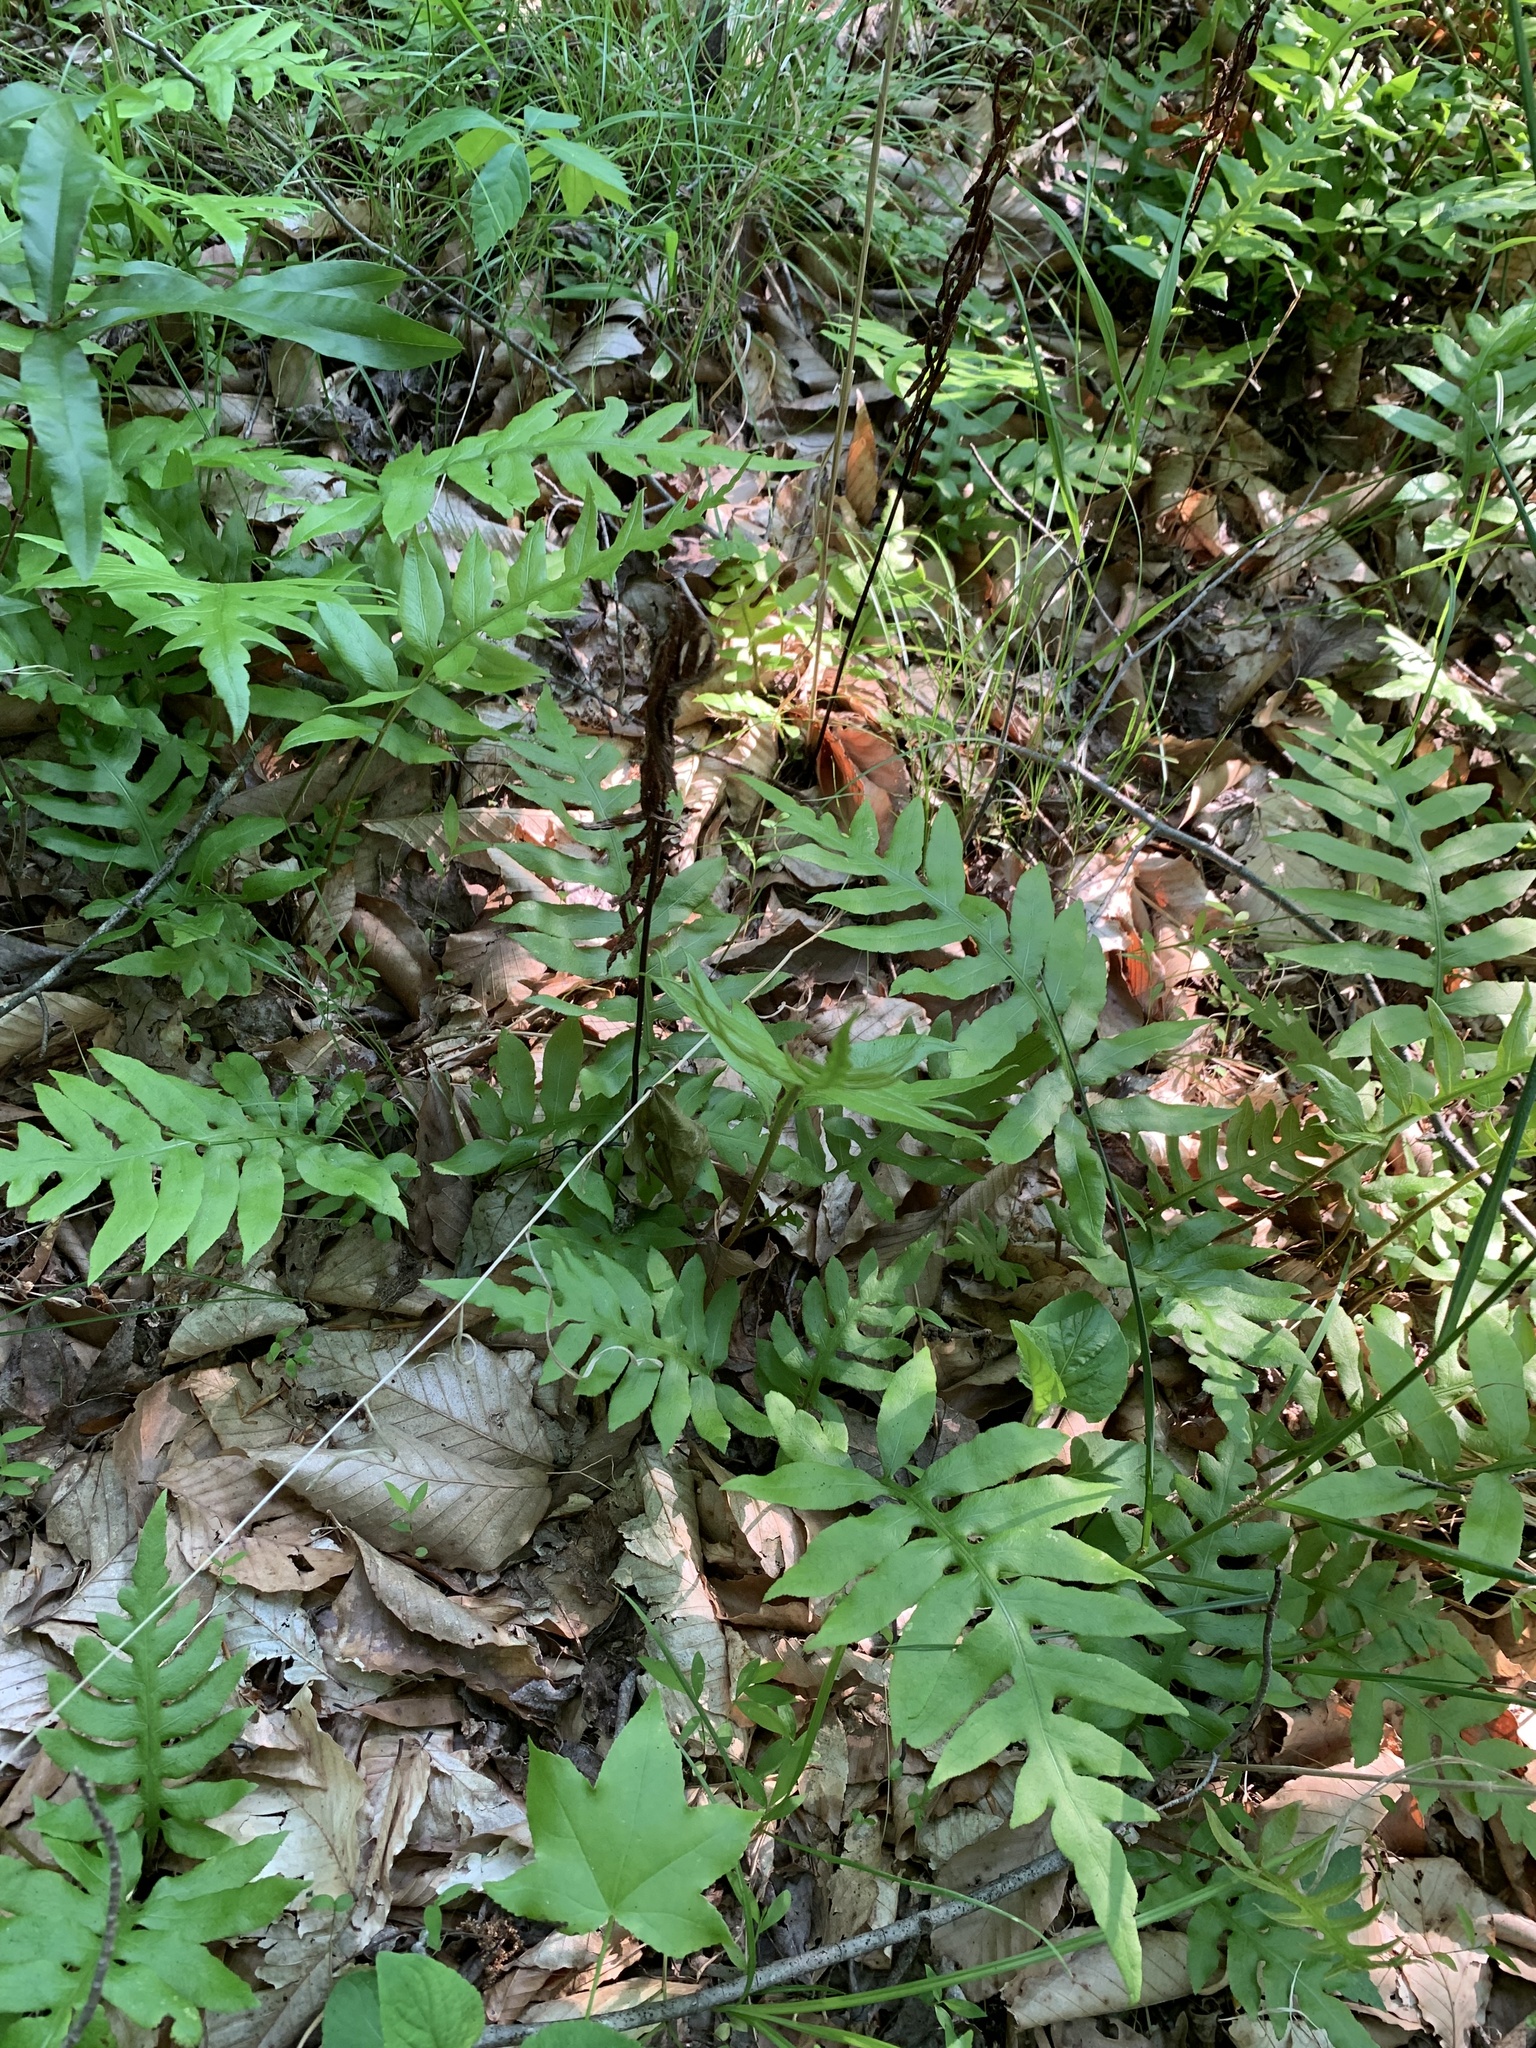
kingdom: Plantae
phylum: Tracheophyta
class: Polypodiopsida
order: Polypodiales
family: Blechnaceae
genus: Lorinseria
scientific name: Lorinseria areolata
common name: Dwarf chain fern
